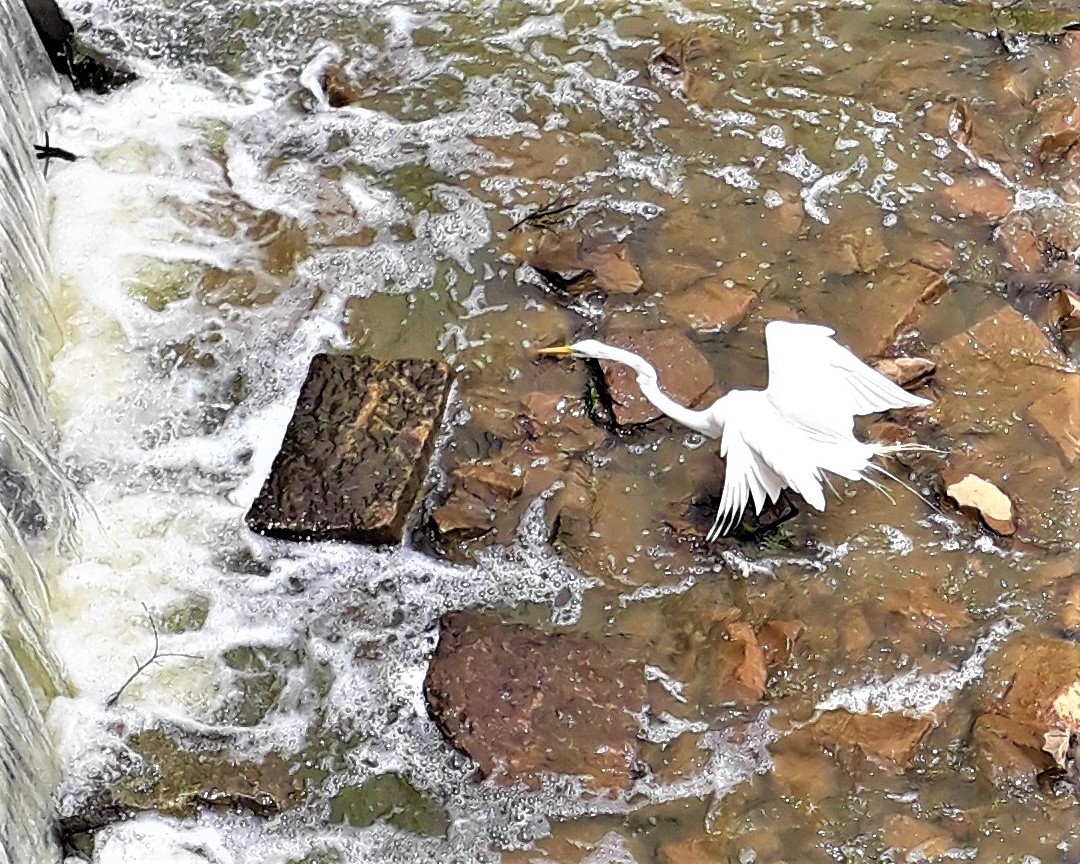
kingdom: Animalia
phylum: Chordata
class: Aves
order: Pelecaniformes
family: Ardeidae
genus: Ardea
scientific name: Ardea alba
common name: Great egret
